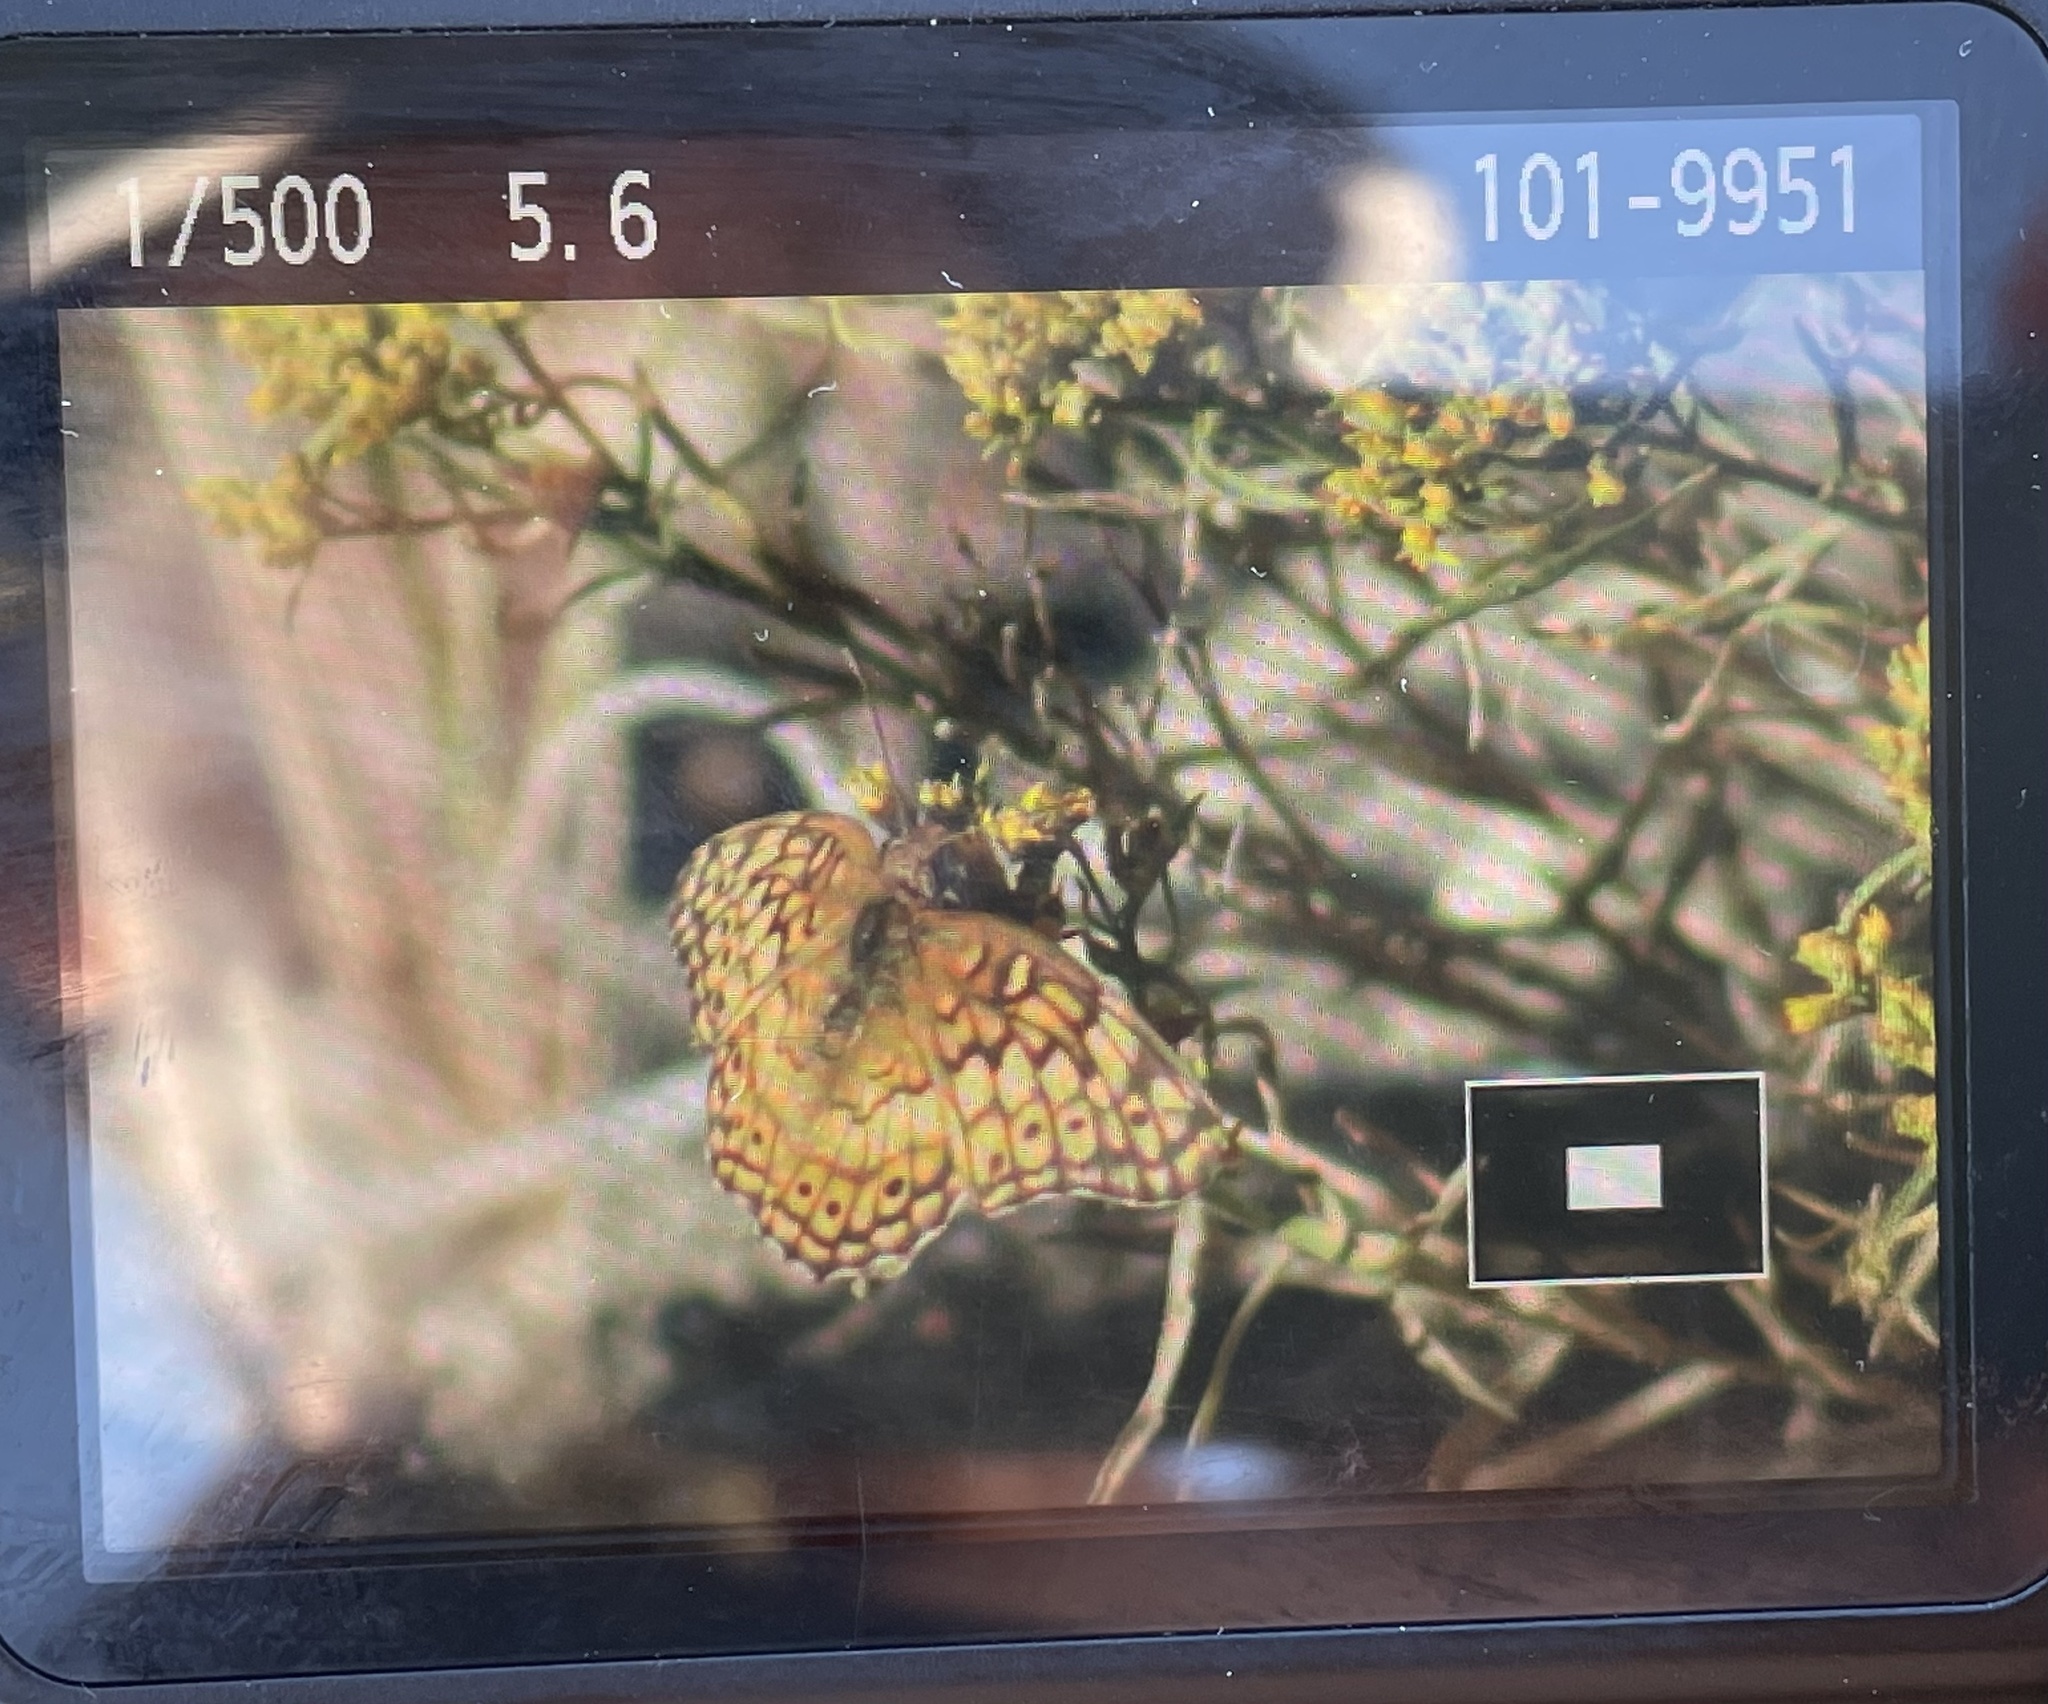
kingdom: Animalia
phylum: Arthropoda
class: Insecta
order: Lepidoptera
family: Nymphalidae
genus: Euptoieta
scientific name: Euptoieta claudia
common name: Variegated fritillary
